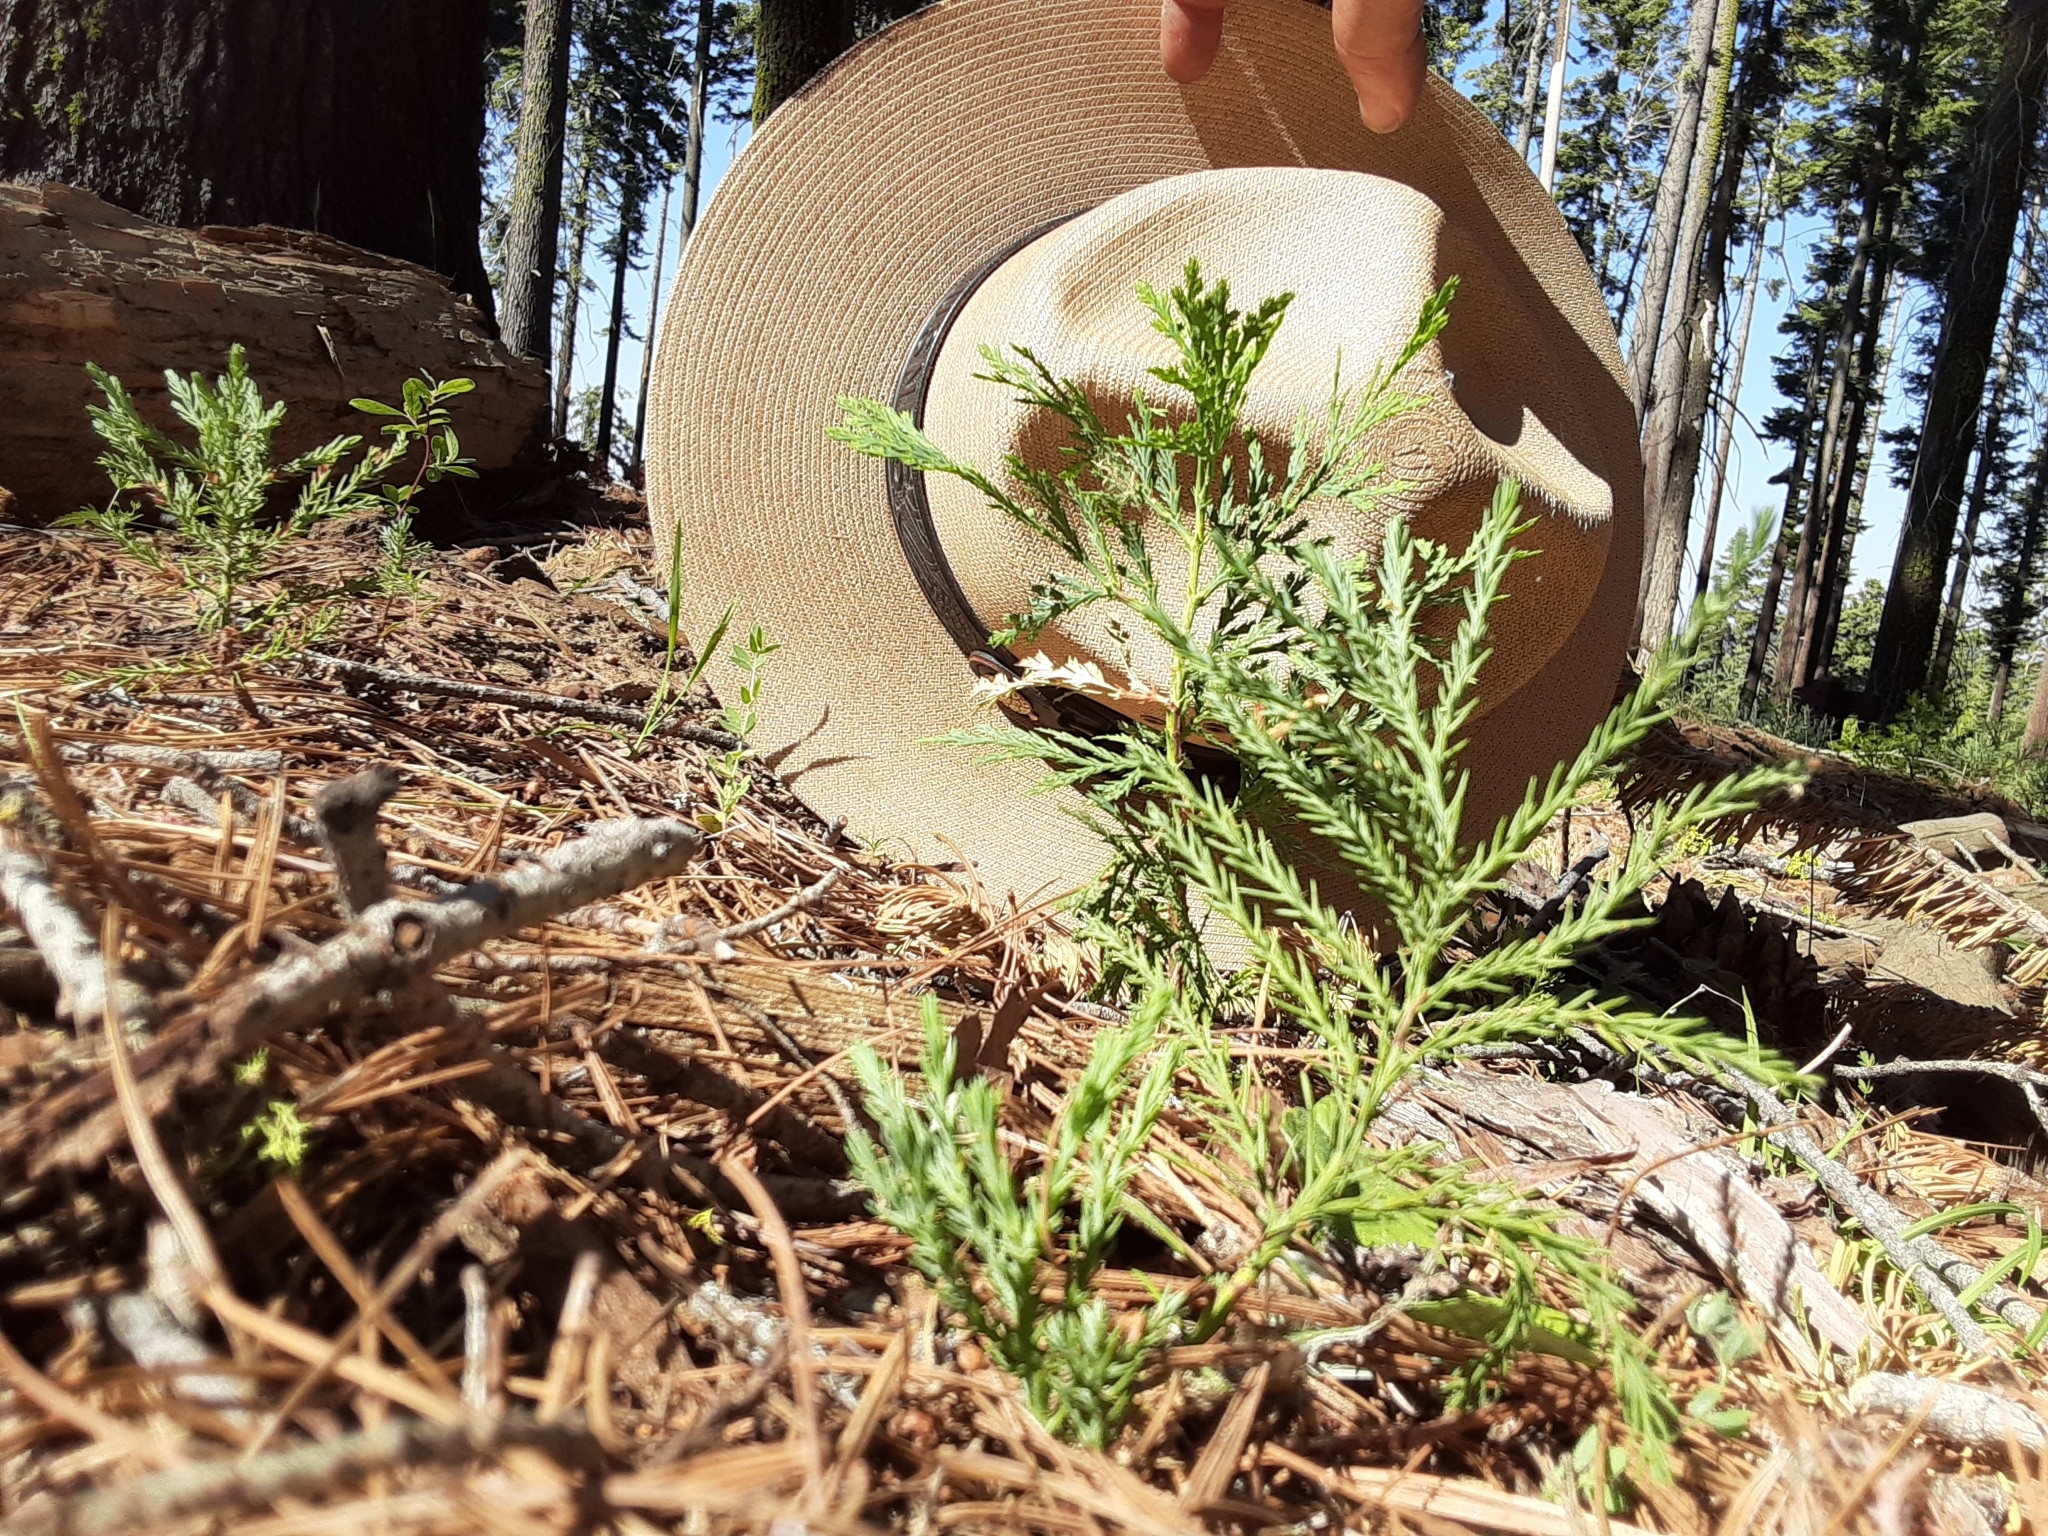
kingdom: Plantae
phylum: Tracheophyta
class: Pinopsida
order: Pinales
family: Cupressaceae
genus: Sequoiadendron
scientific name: Sequoiadendron giganteum
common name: Wellingtonia
